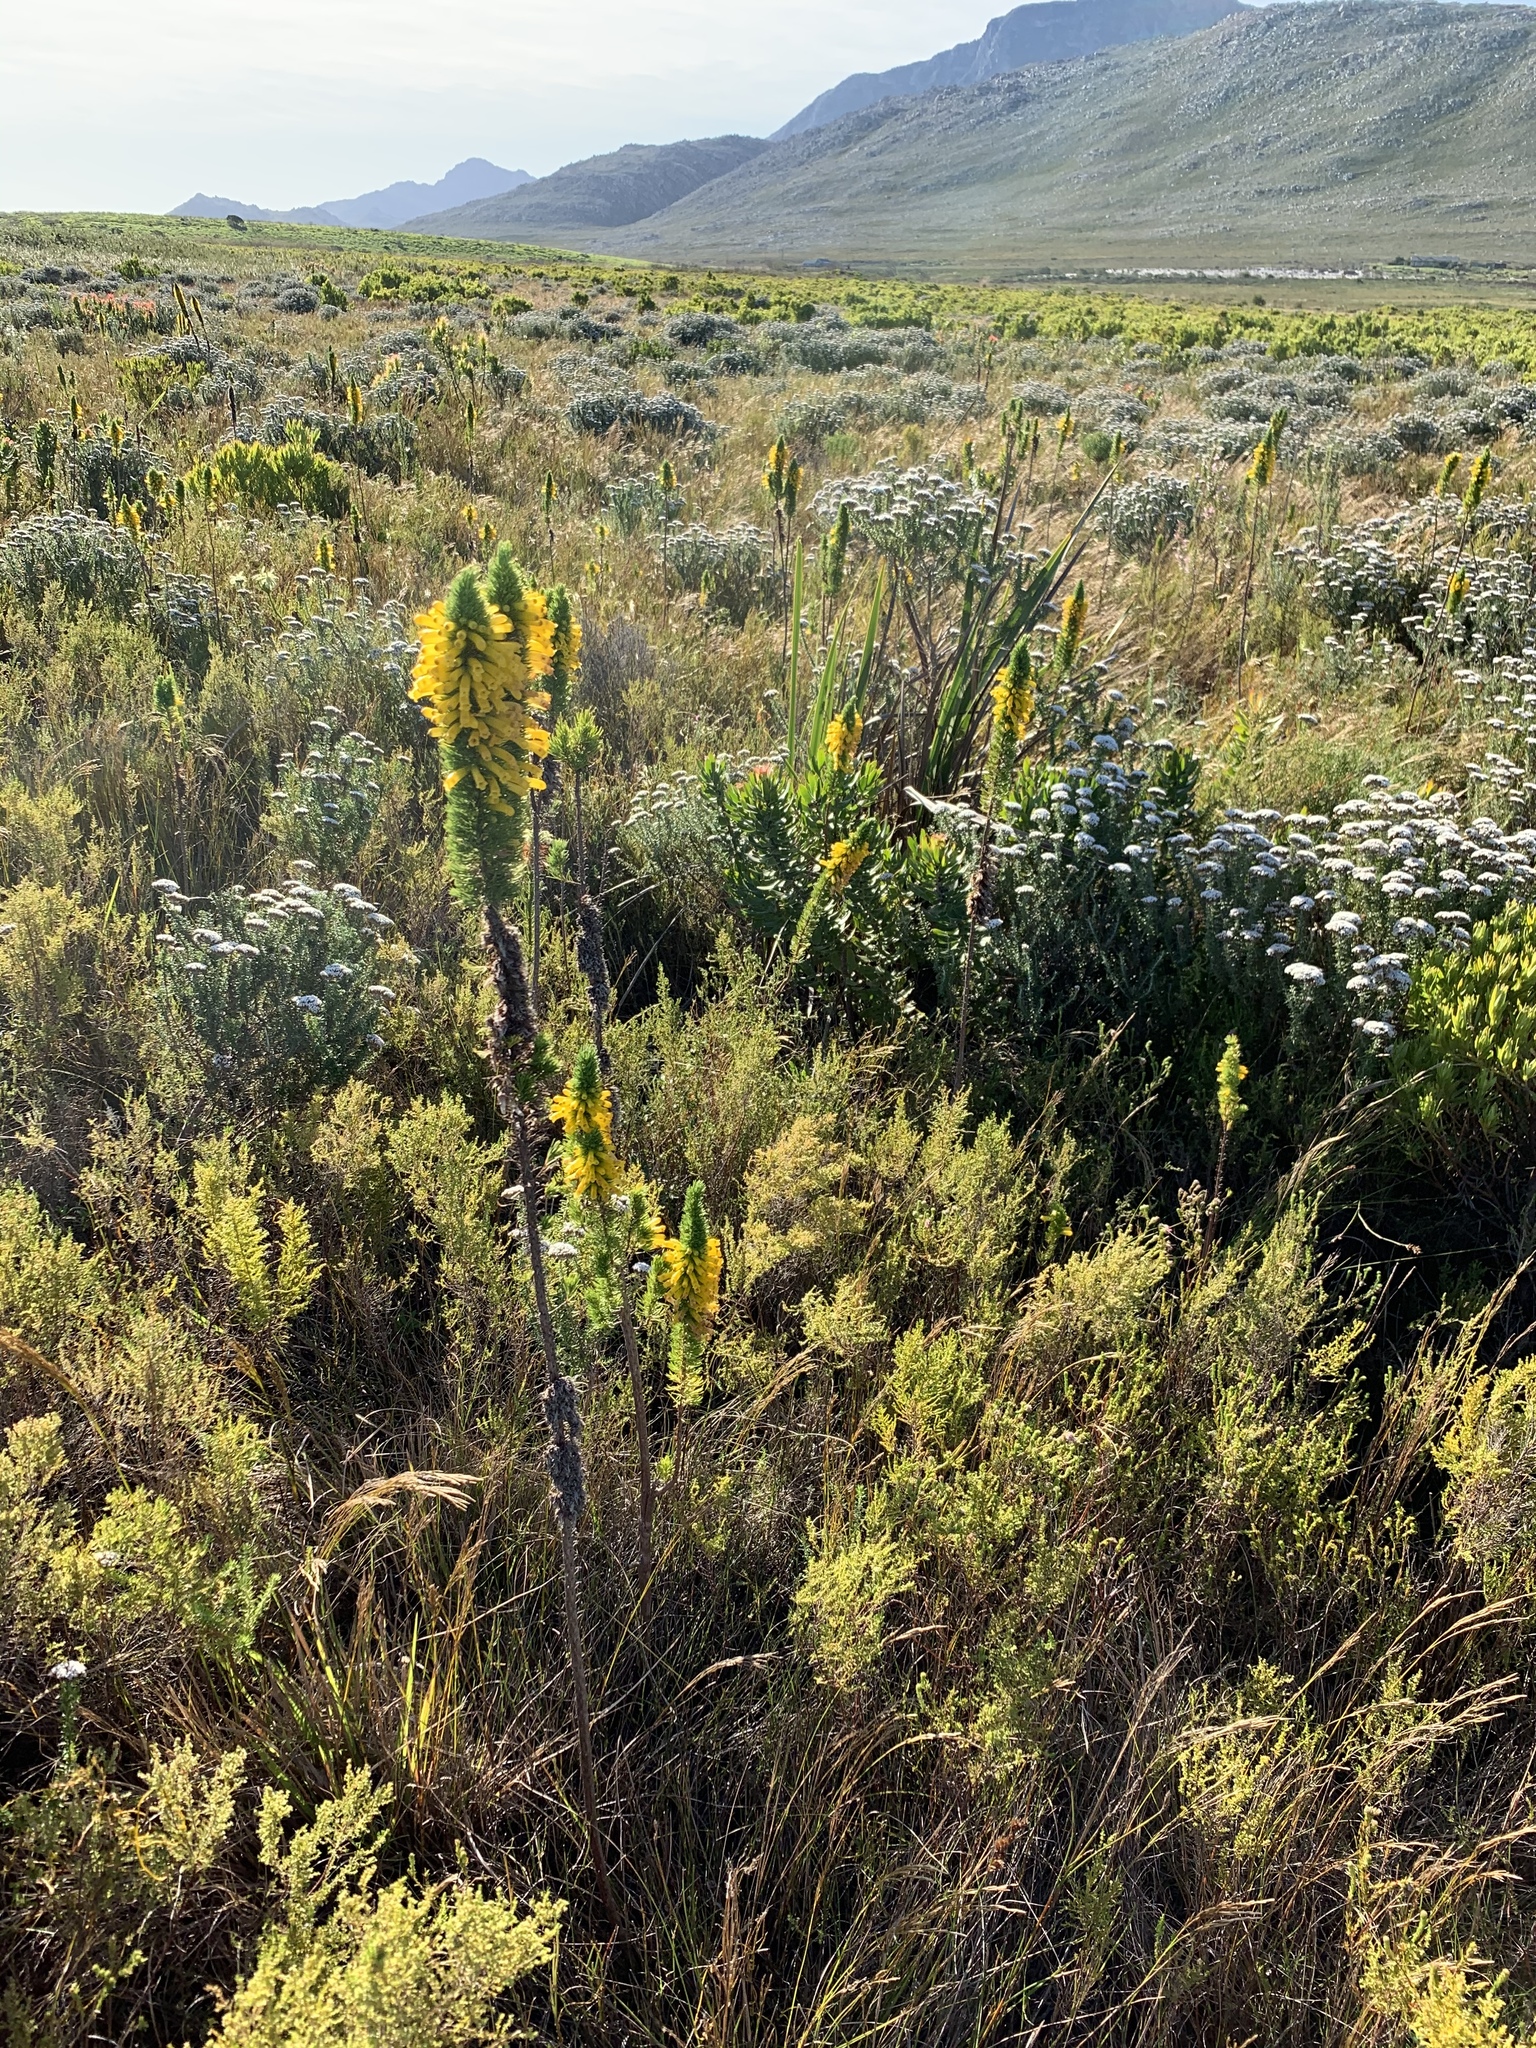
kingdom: Plantae
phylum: Tracheophyta
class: Magnoliopsida
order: Ericales
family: Ericaceae
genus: Erica
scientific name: Erica patersonia
